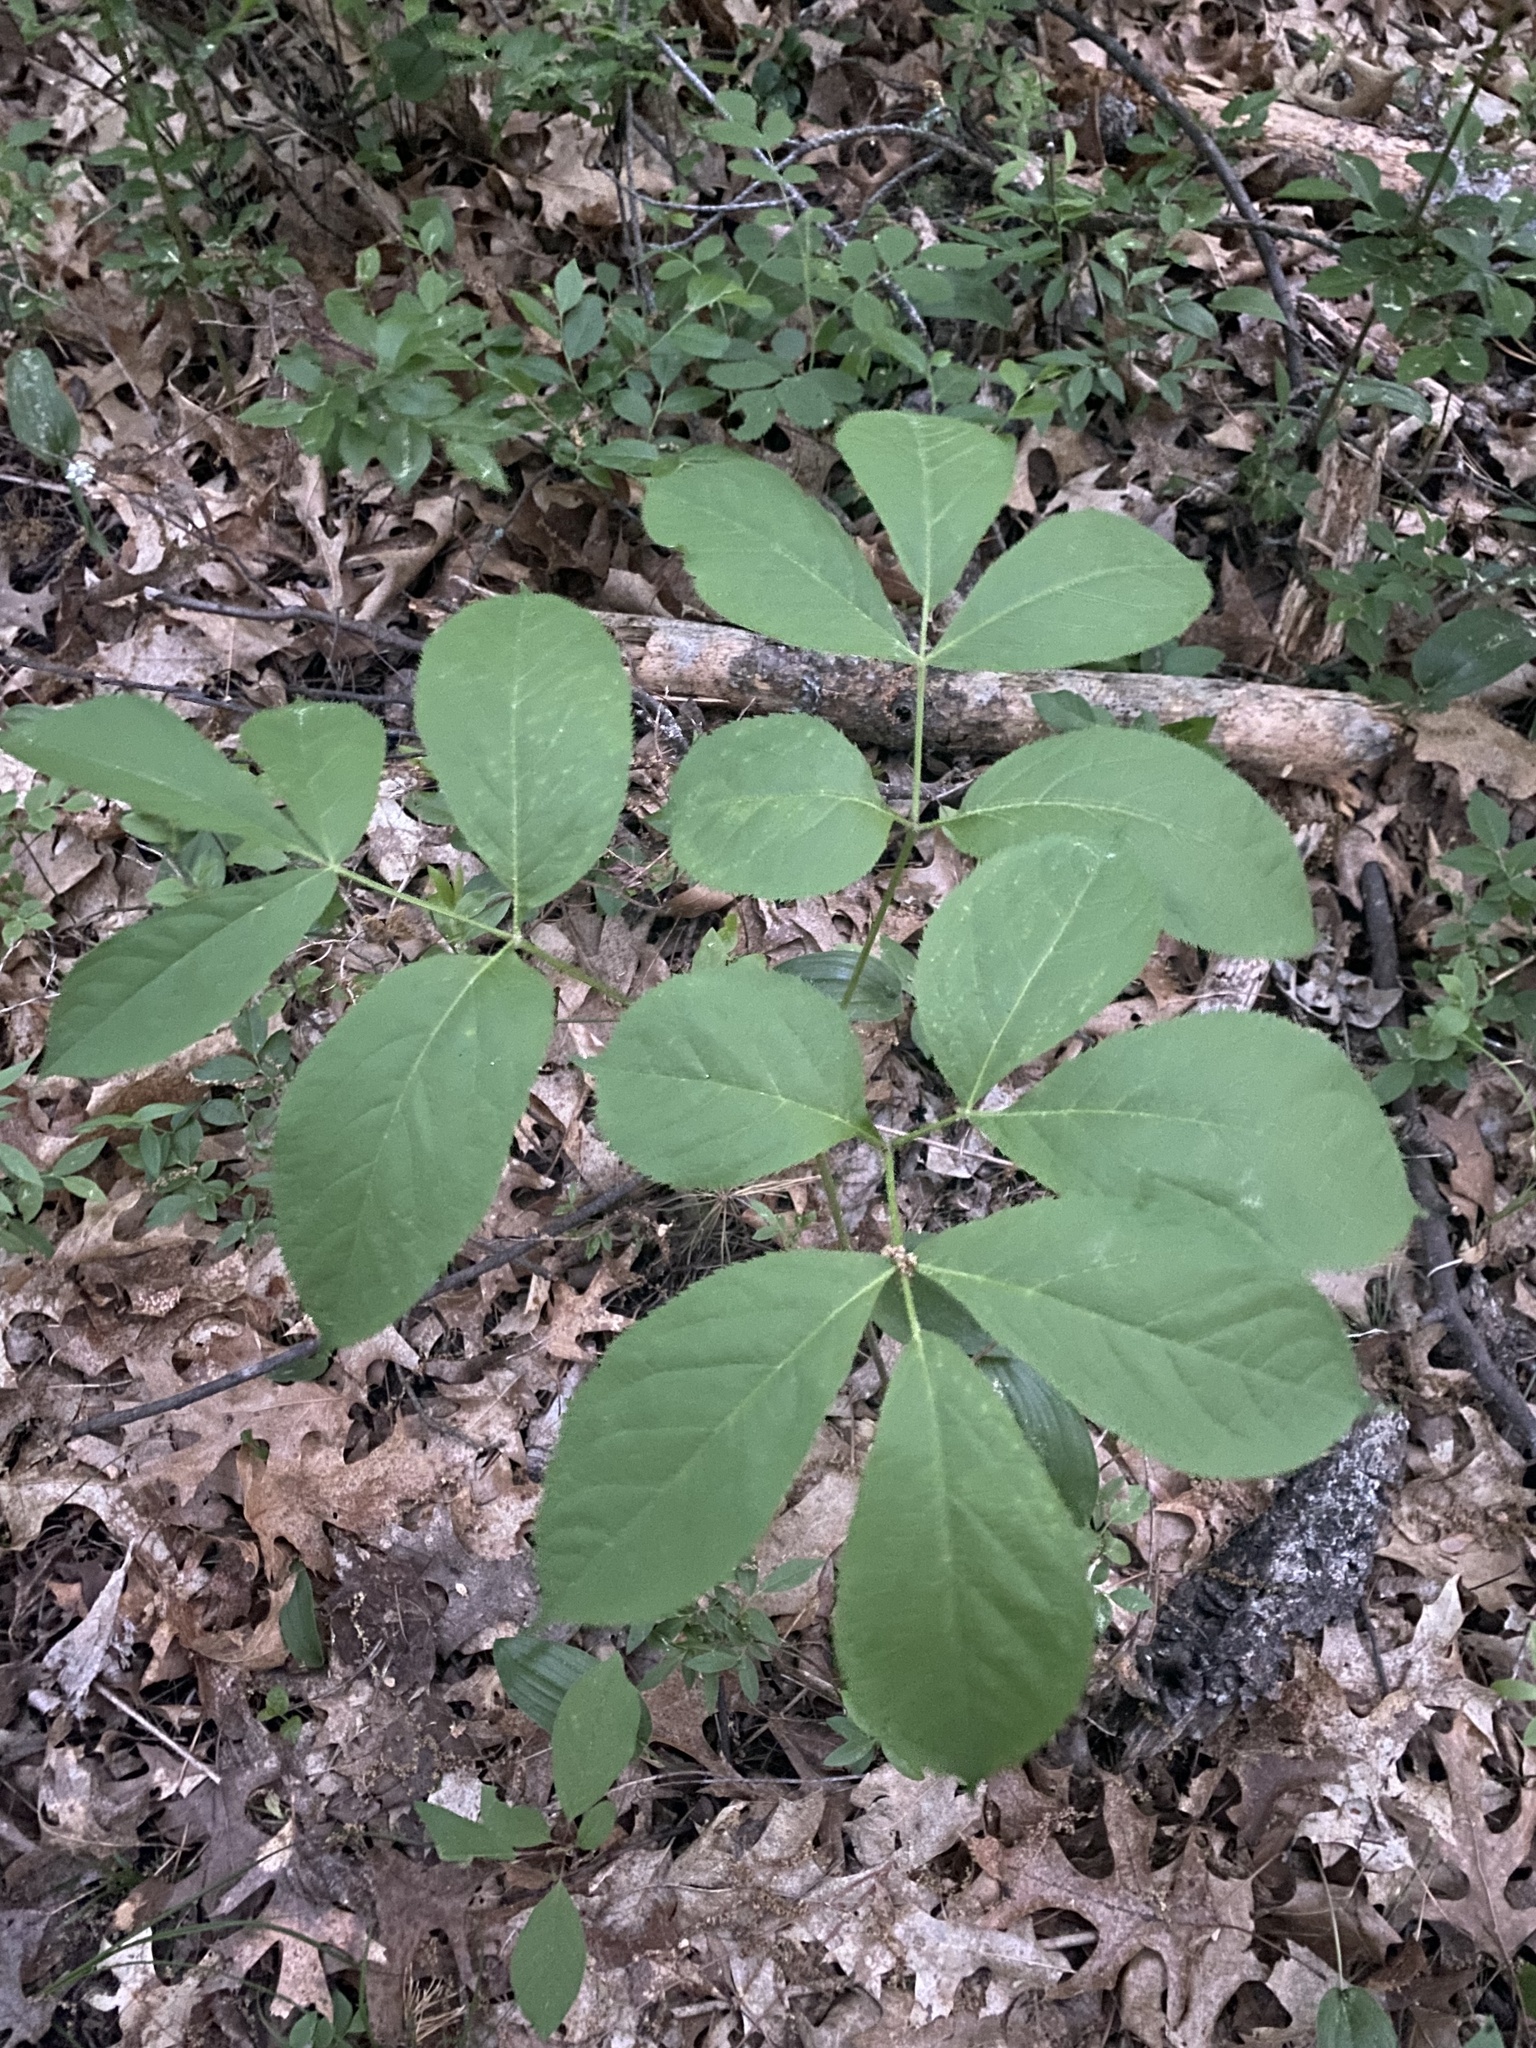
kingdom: Plantae
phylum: Tracheophyta
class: Magnoliopsida
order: Apiales
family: Araliaceae
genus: Aralia
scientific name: Aralia nudicaulis
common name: Wild sarsaparilla
